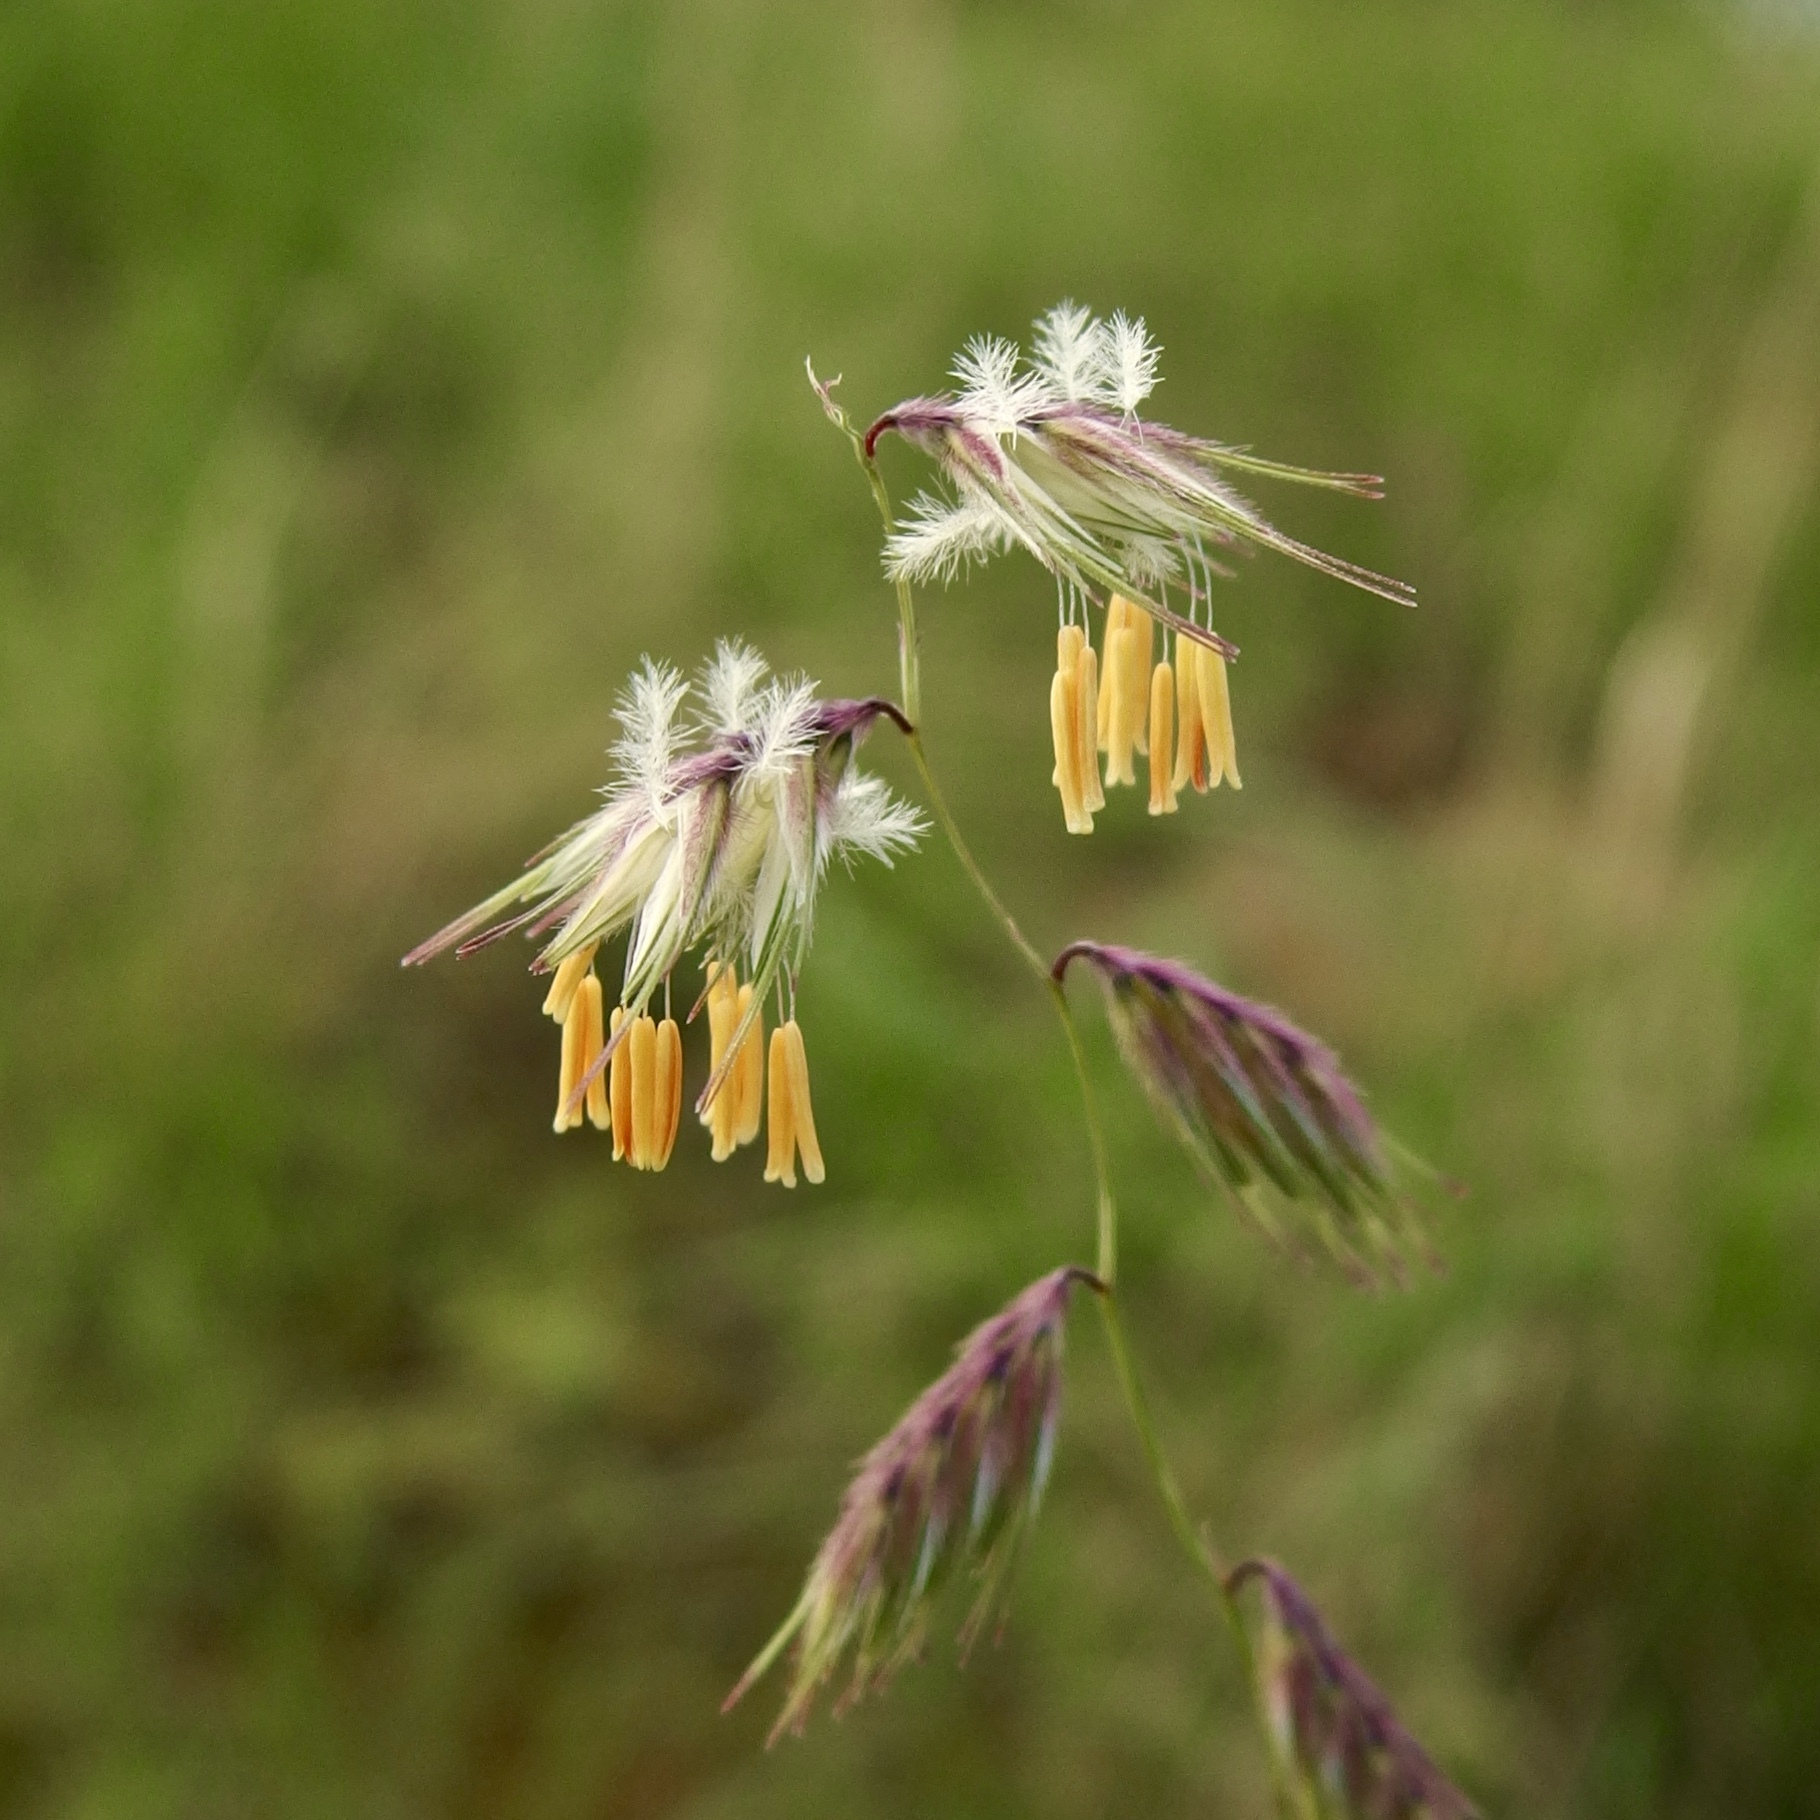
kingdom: Plantae
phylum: Tracheophyta
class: Liliopsida
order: Poales
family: Poaceae
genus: Bouteloua
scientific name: Bouteloua chondrosioides
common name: Sprucetop grama
